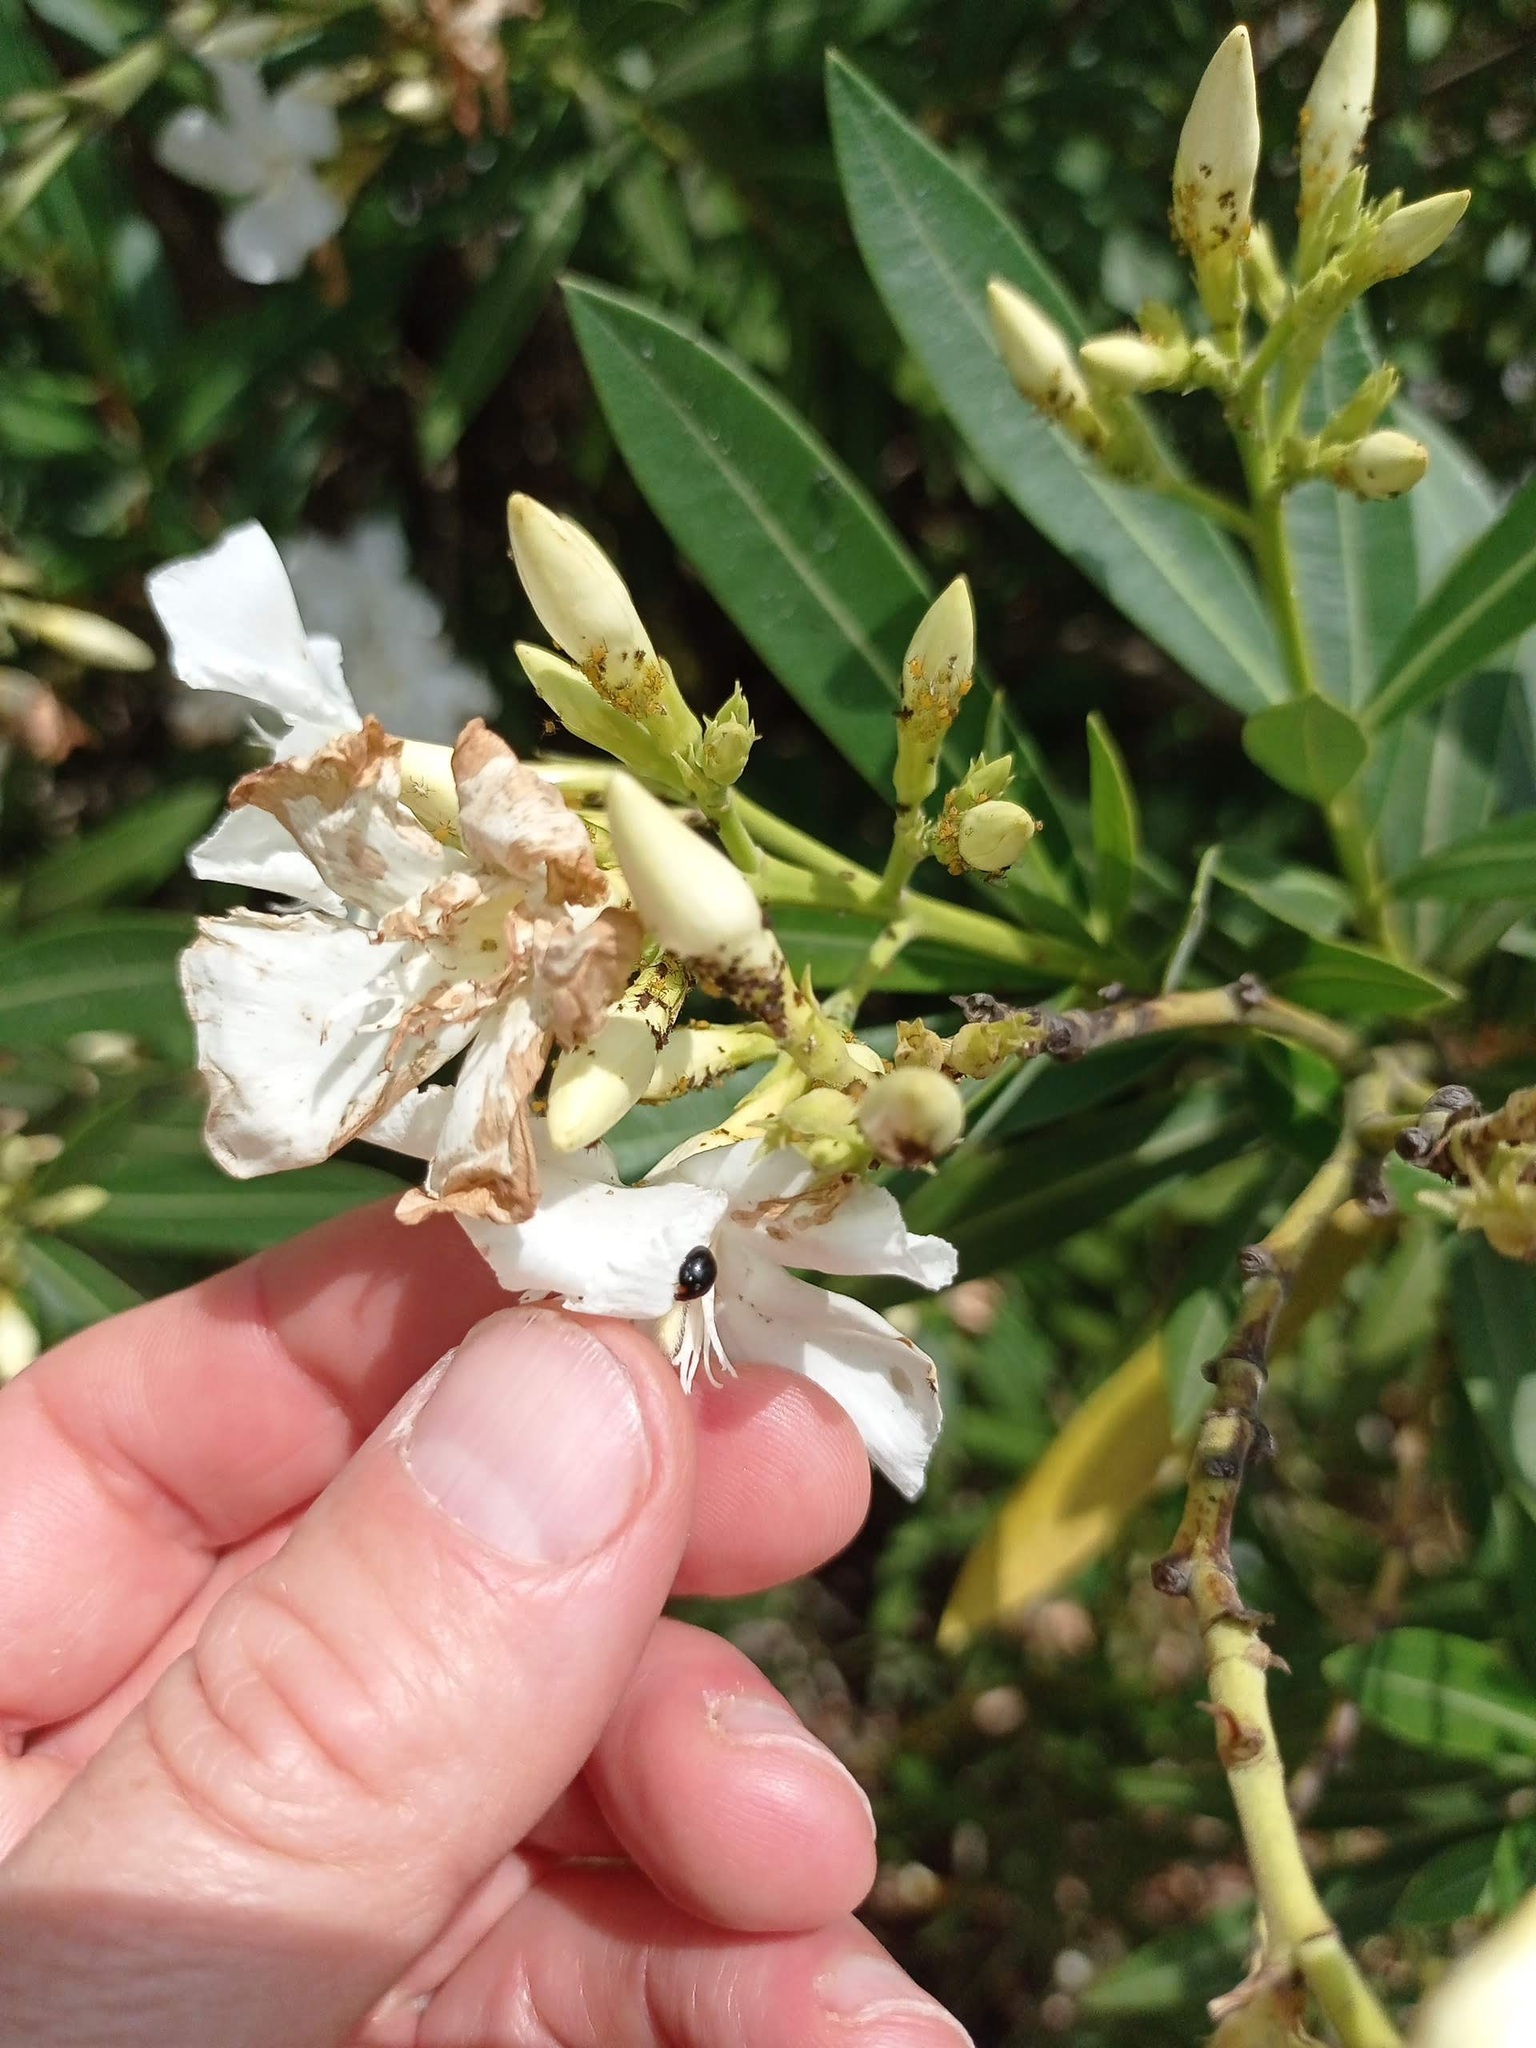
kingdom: Animalia
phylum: Arthropoda
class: Insecta
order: Coleoptera
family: Coccinellidae
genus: Parexochomus
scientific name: Parexochomus nigromaculatus
